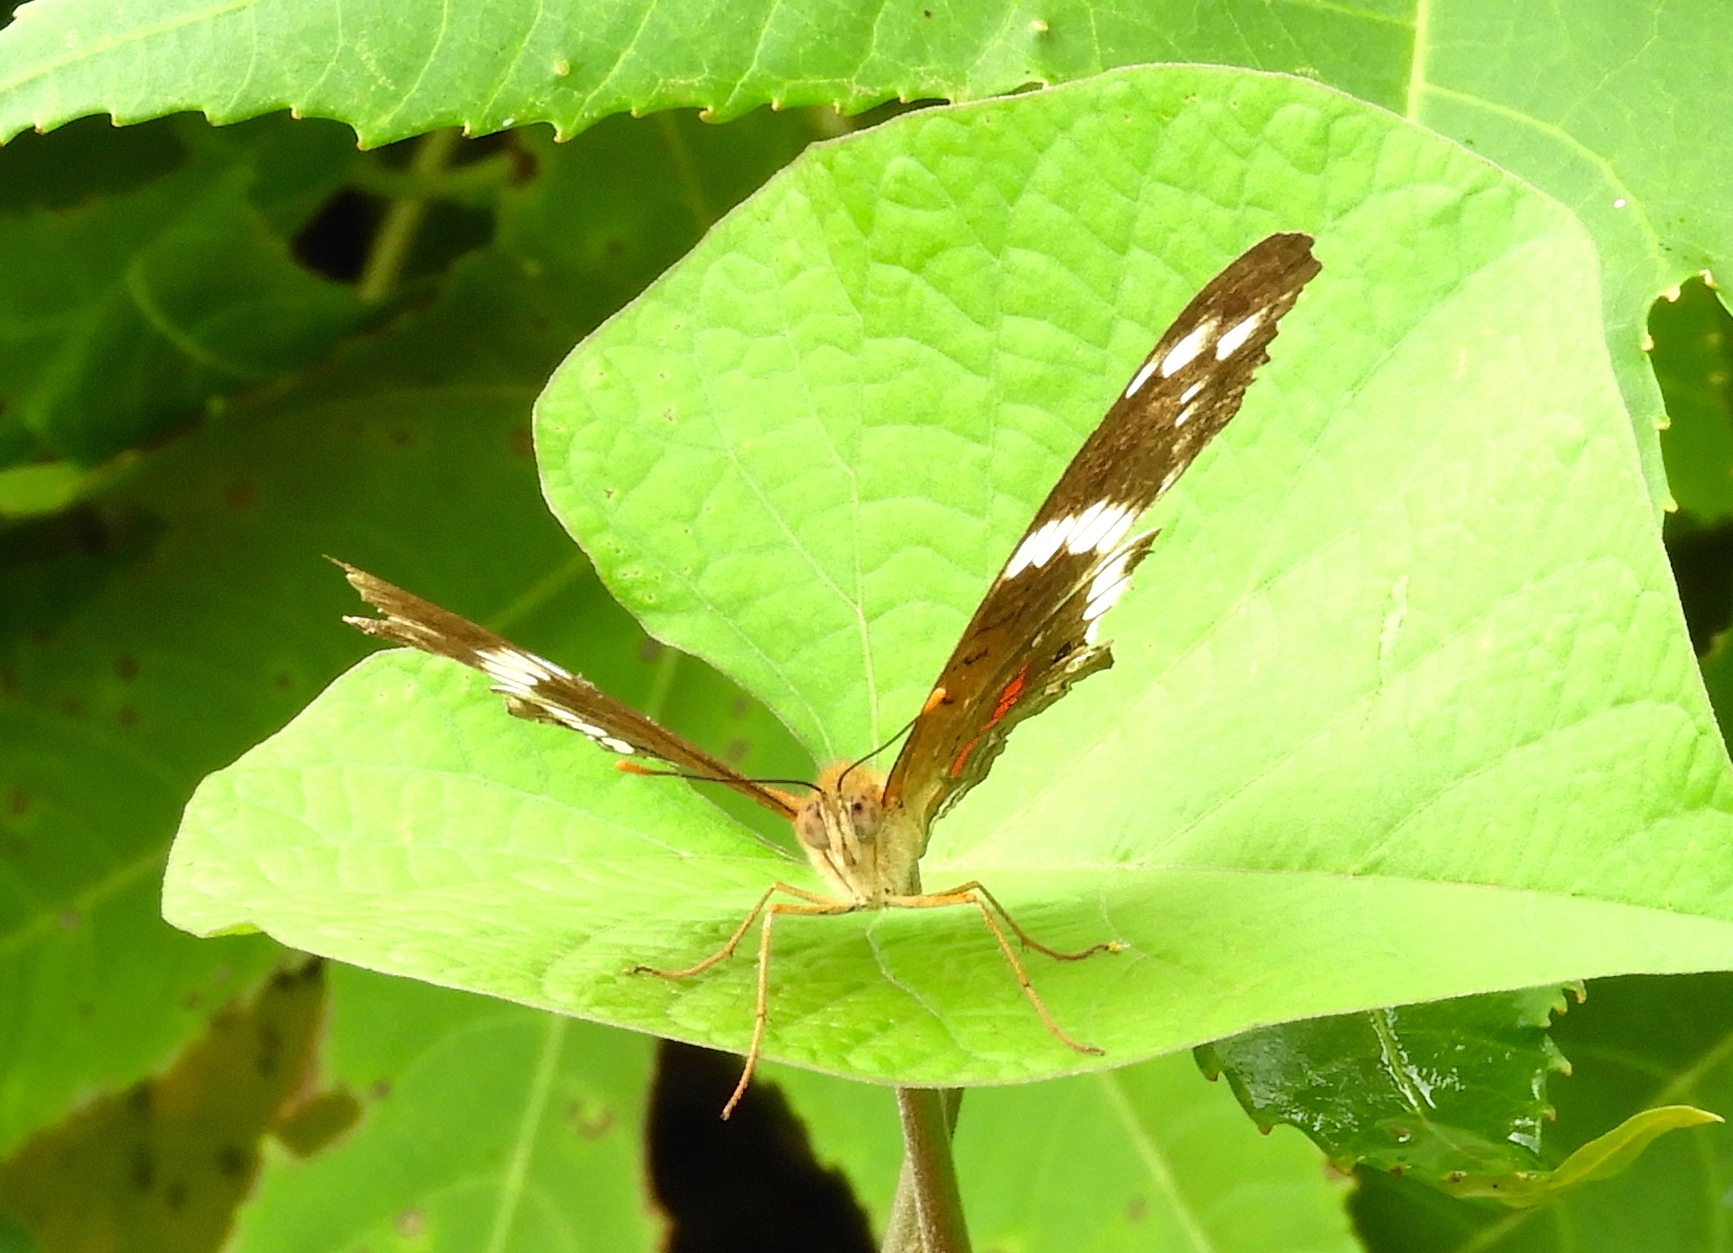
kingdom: Animalia
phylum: Arthropoda
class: Insecta
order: Lepidoptera
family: Nymphalidae
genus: Anartia
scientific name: Anartia fatima
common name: Banded peacock
